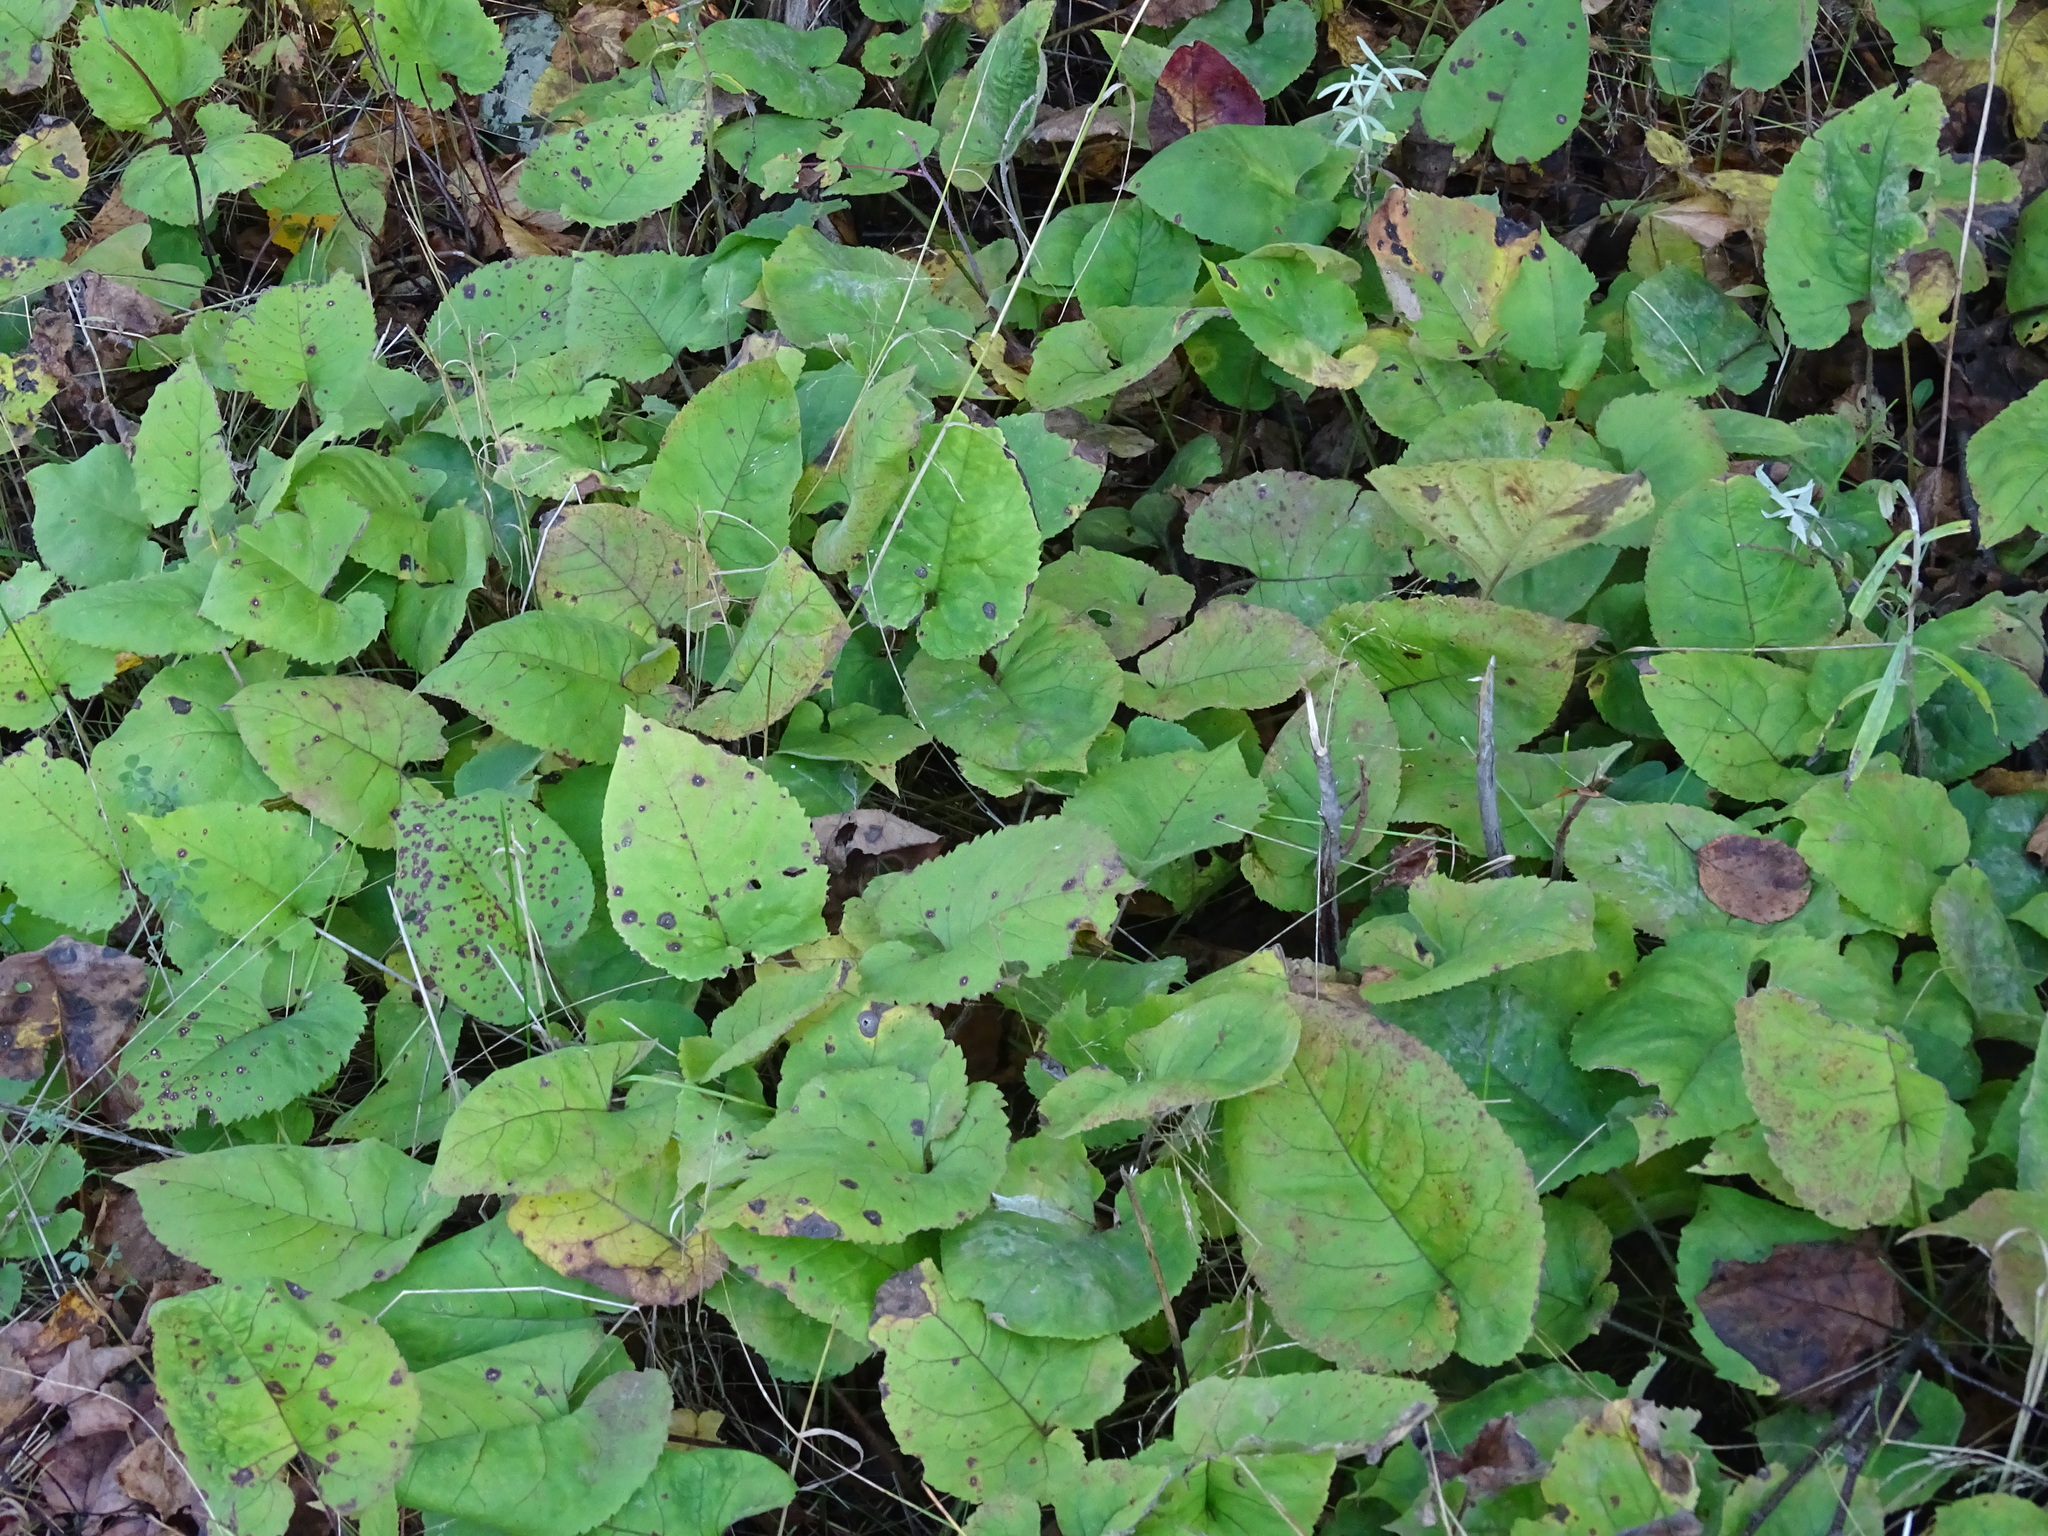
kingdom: Plantae
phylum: Tracheophyta
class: Magnoliopsida
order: Asterales
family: Asteraceae
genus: Eurybia
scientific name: Eurybia macrophylla
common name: Big-leaved aster
